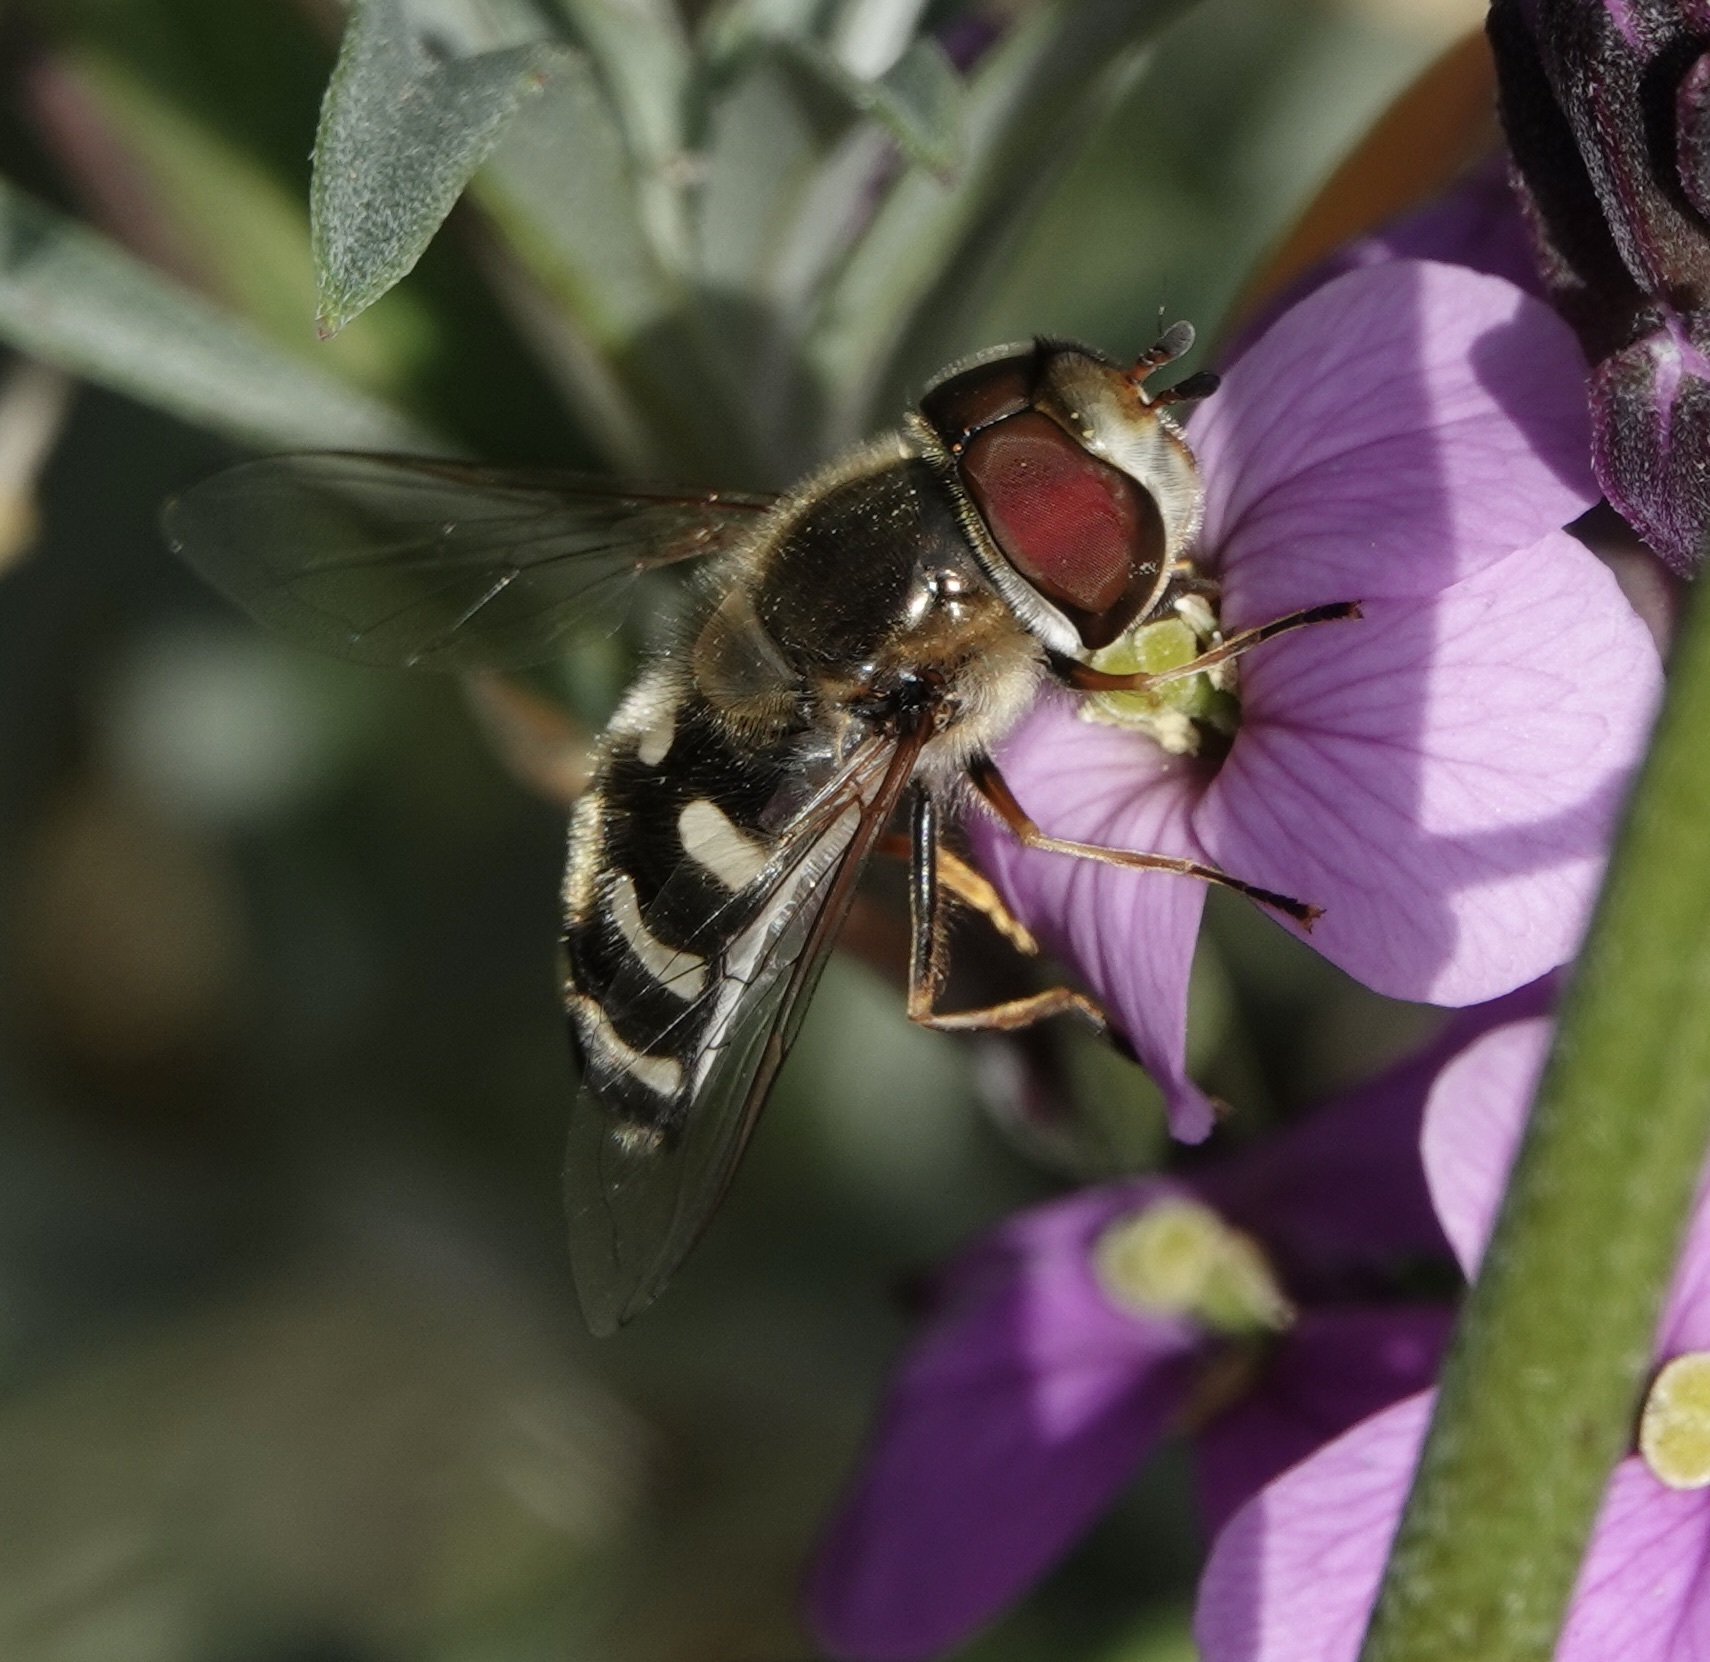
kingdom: Animalia
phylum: Arthropoda
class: Insecta
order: Diptera
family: Syrphidae
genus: Scaeva
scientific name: Scaeva pyrastri
